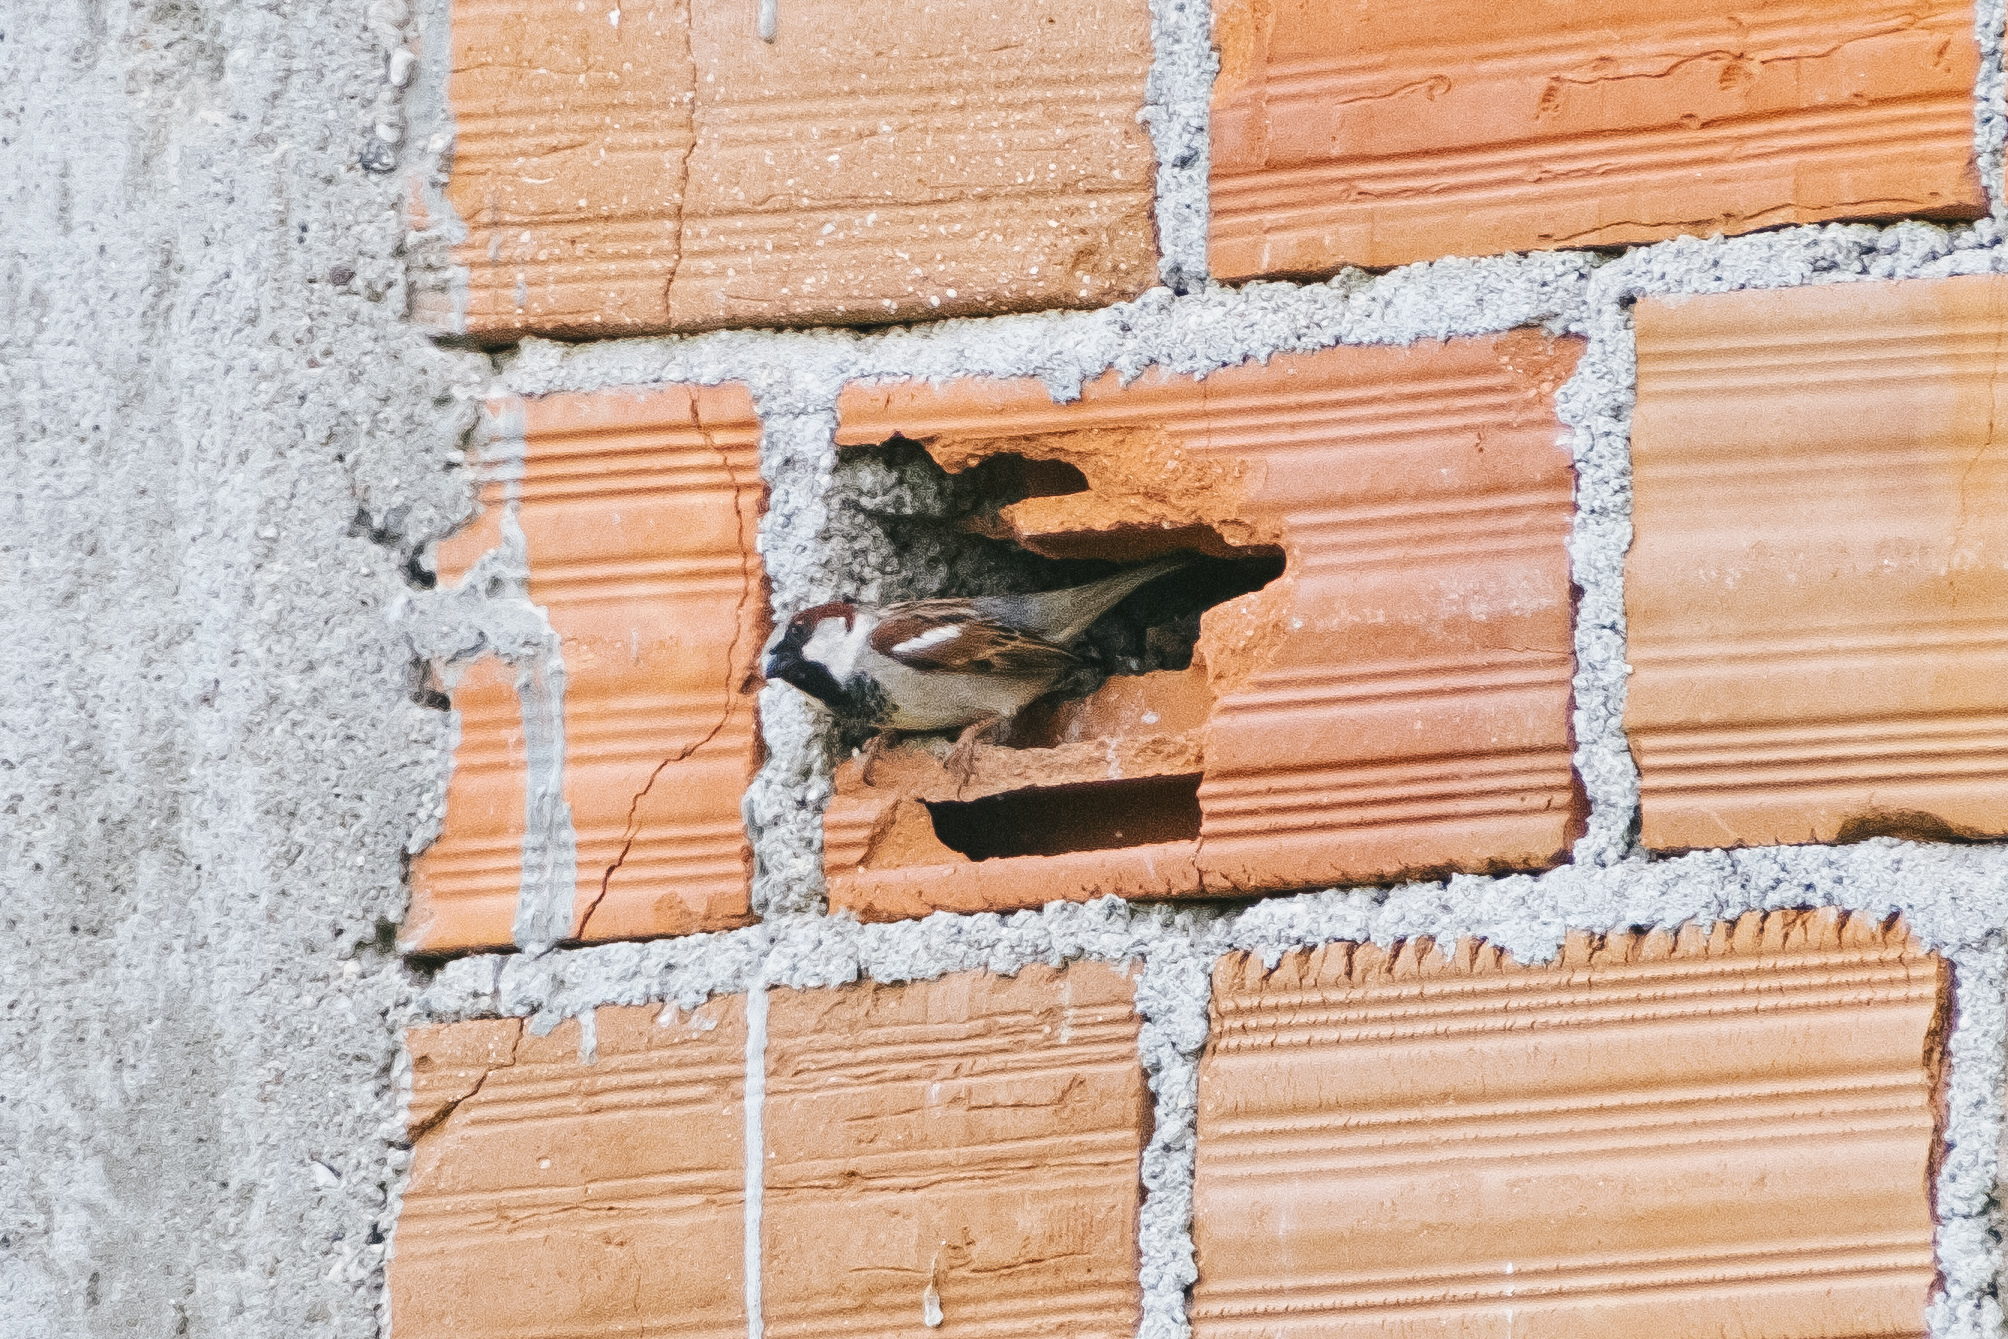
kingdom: Animalia
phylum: Chordata
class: Aves
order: Passeriformes
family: Passeridae
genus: Passer
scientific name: Passer domesticus
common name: House sparrow
